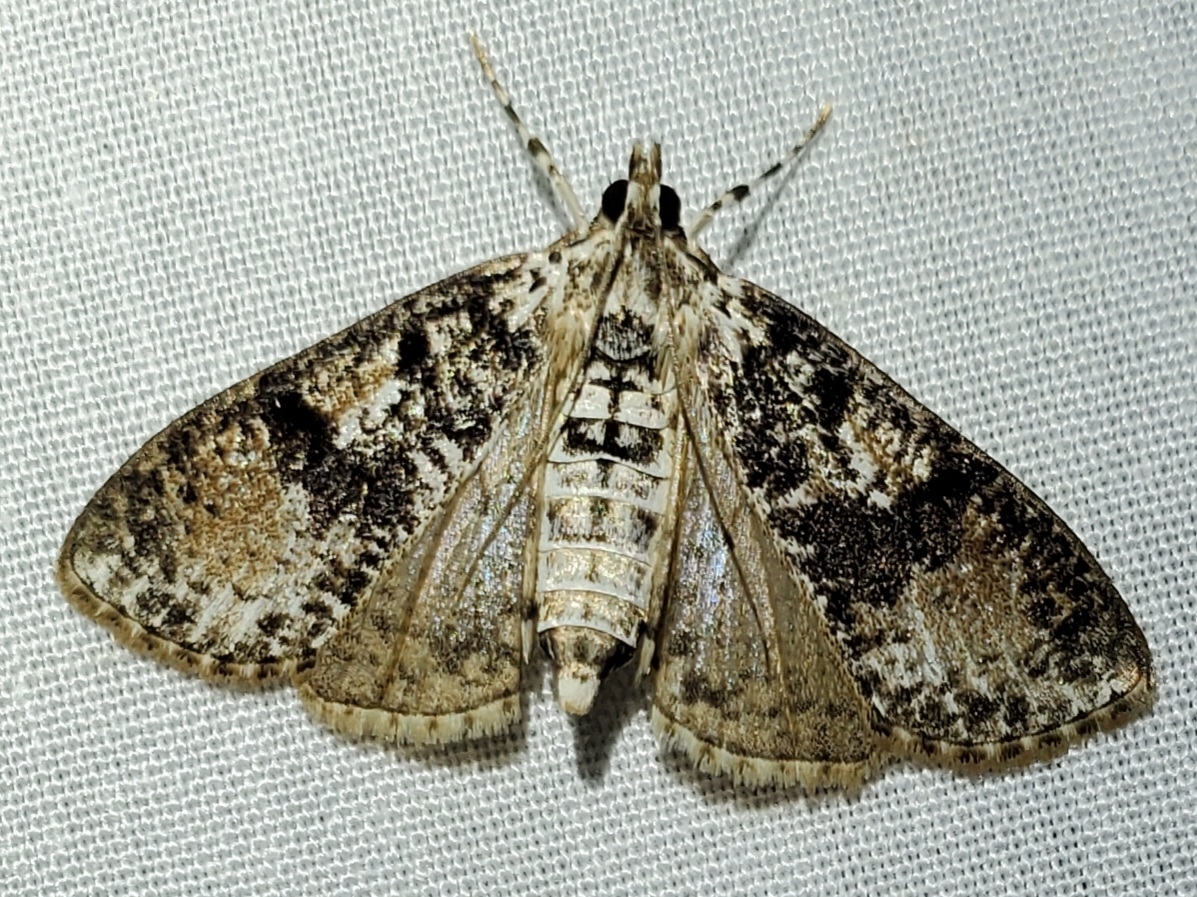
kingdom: Animalia
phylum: Arthropoda
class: Insecta
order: Lepidoptera
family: Crambidae
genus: Palpita
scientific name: Palpita magniferalis
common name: Splendid palpita moth
